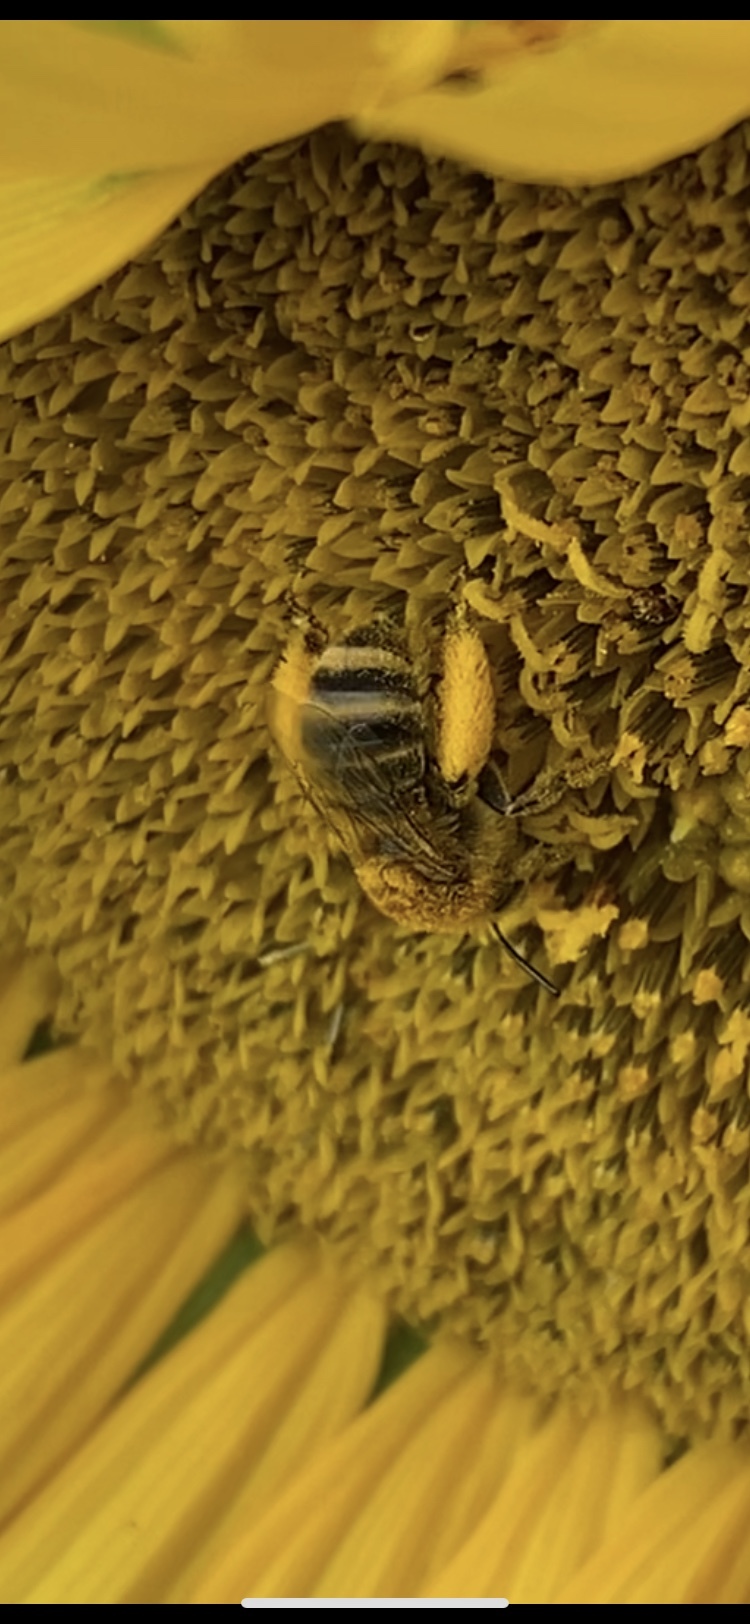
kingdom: Animalia
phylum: Arthropoda
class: Insecta
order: Hymenoptera
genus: Eumelissodes
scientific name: Eumelissodes
